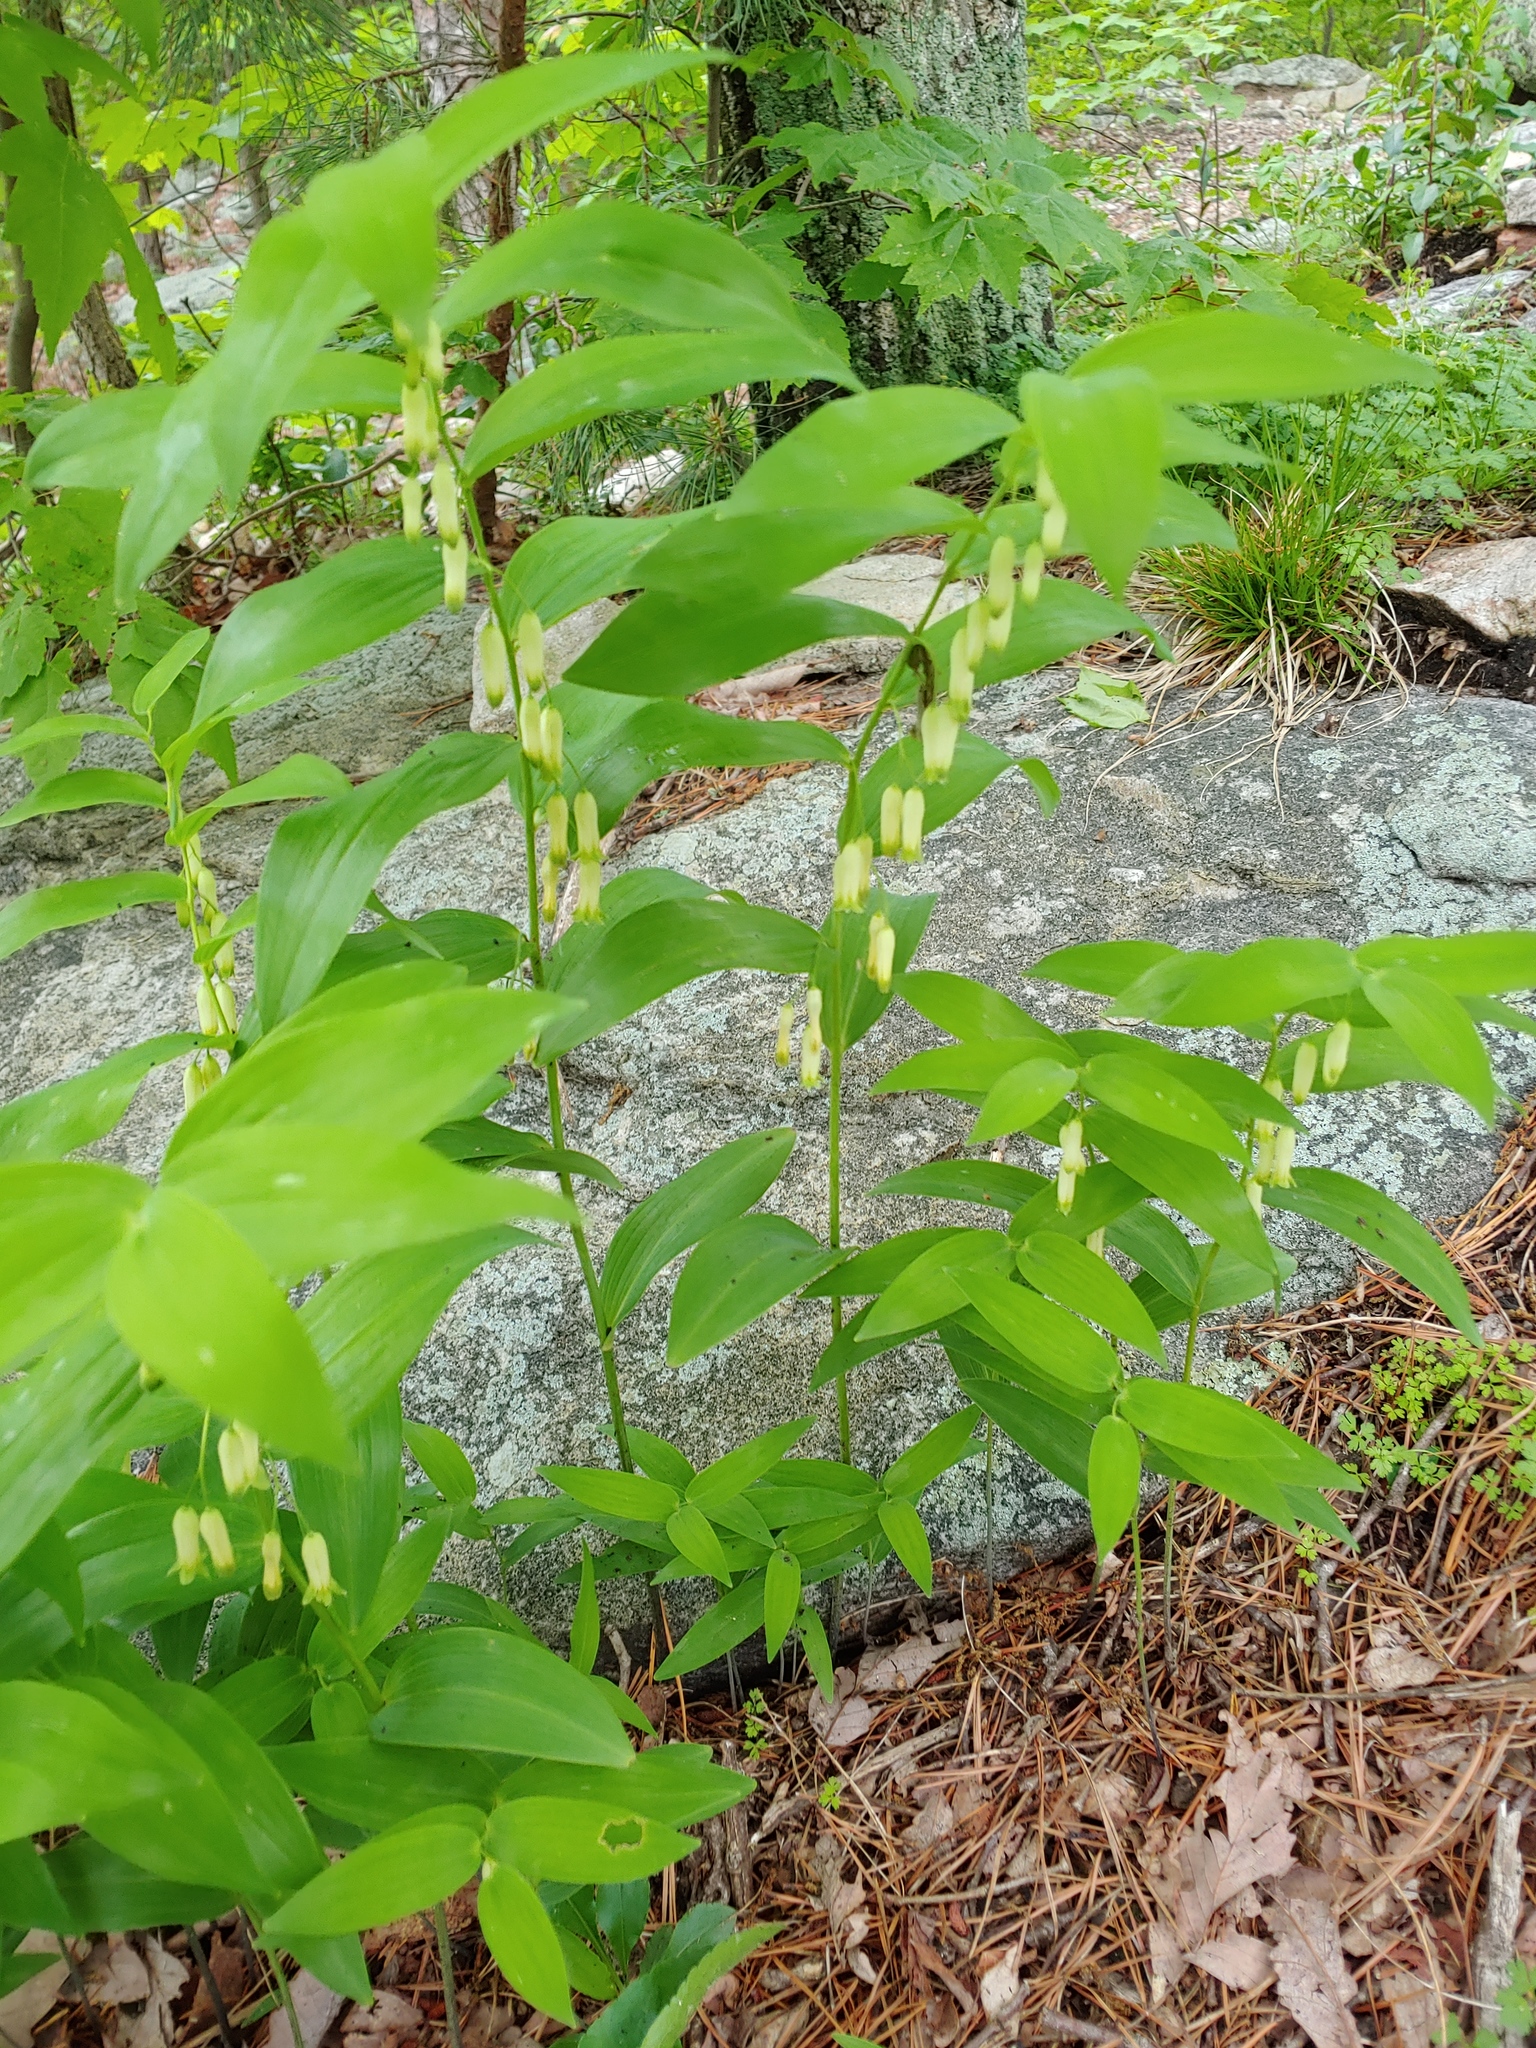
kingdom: Plantae
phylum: Tracheophyta
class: Liliopsida
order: Asparagales
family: Asparagaceae
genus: Polygonatum
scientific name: Polygonatum biflorum
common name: American solomon's-seal
